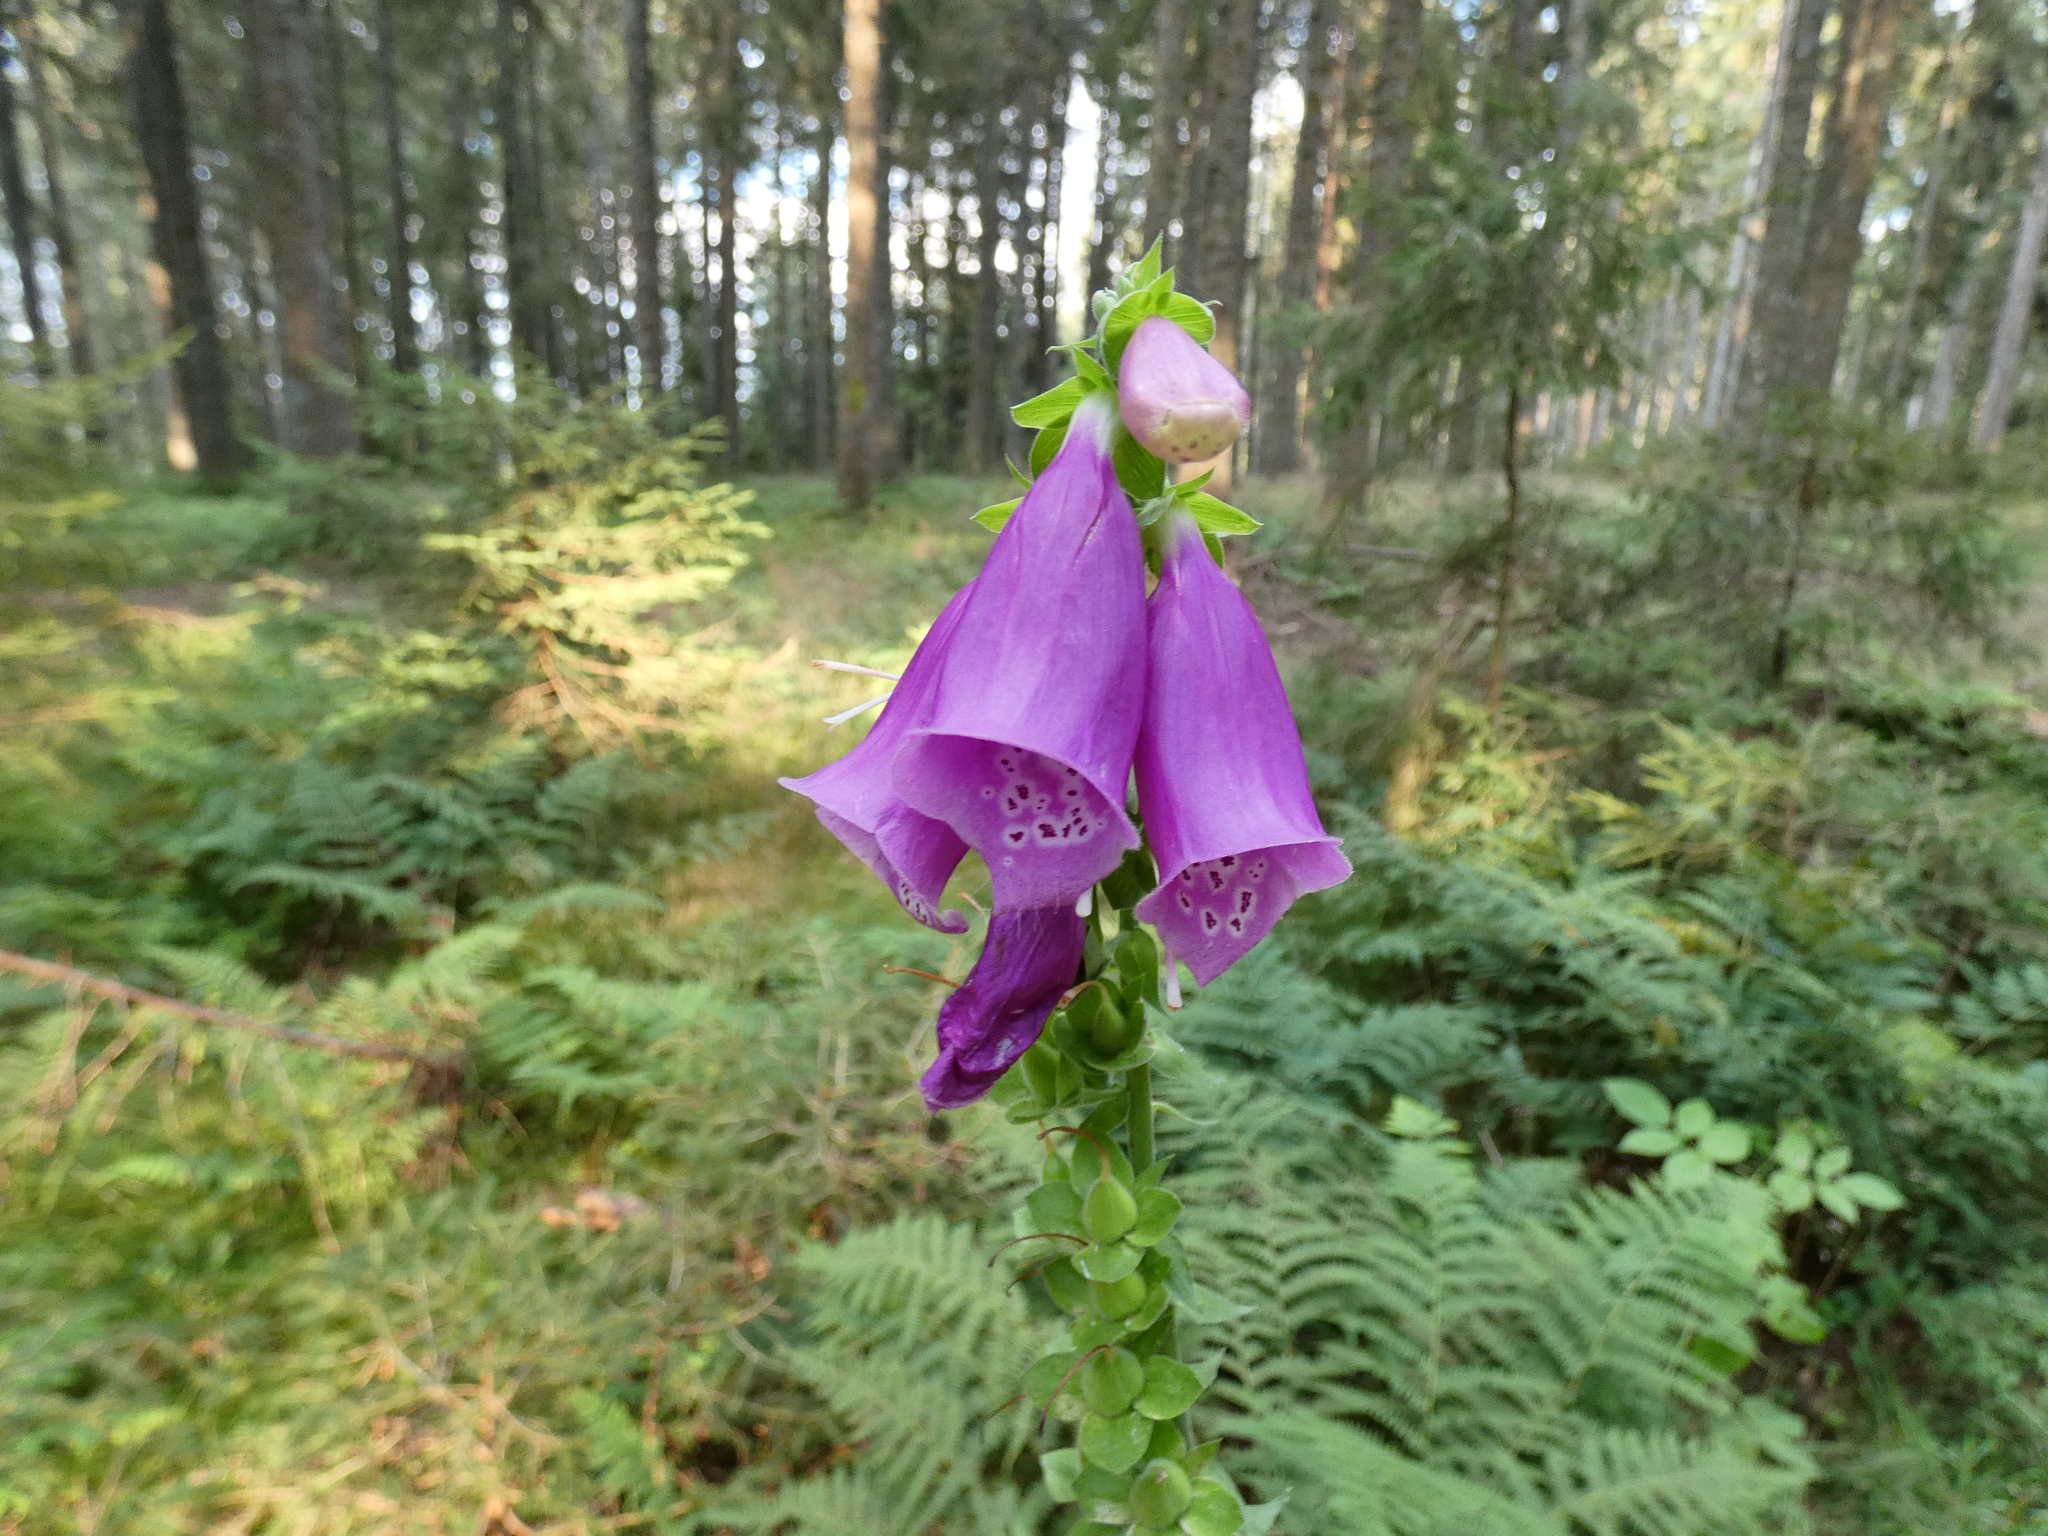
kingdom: Plantae
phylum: Tracheophyta
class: Magnoliopsida
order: Lamiales
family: Plantaginaceae
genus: Digitalis
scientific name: Digitalis purpurea
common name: Foxglove
